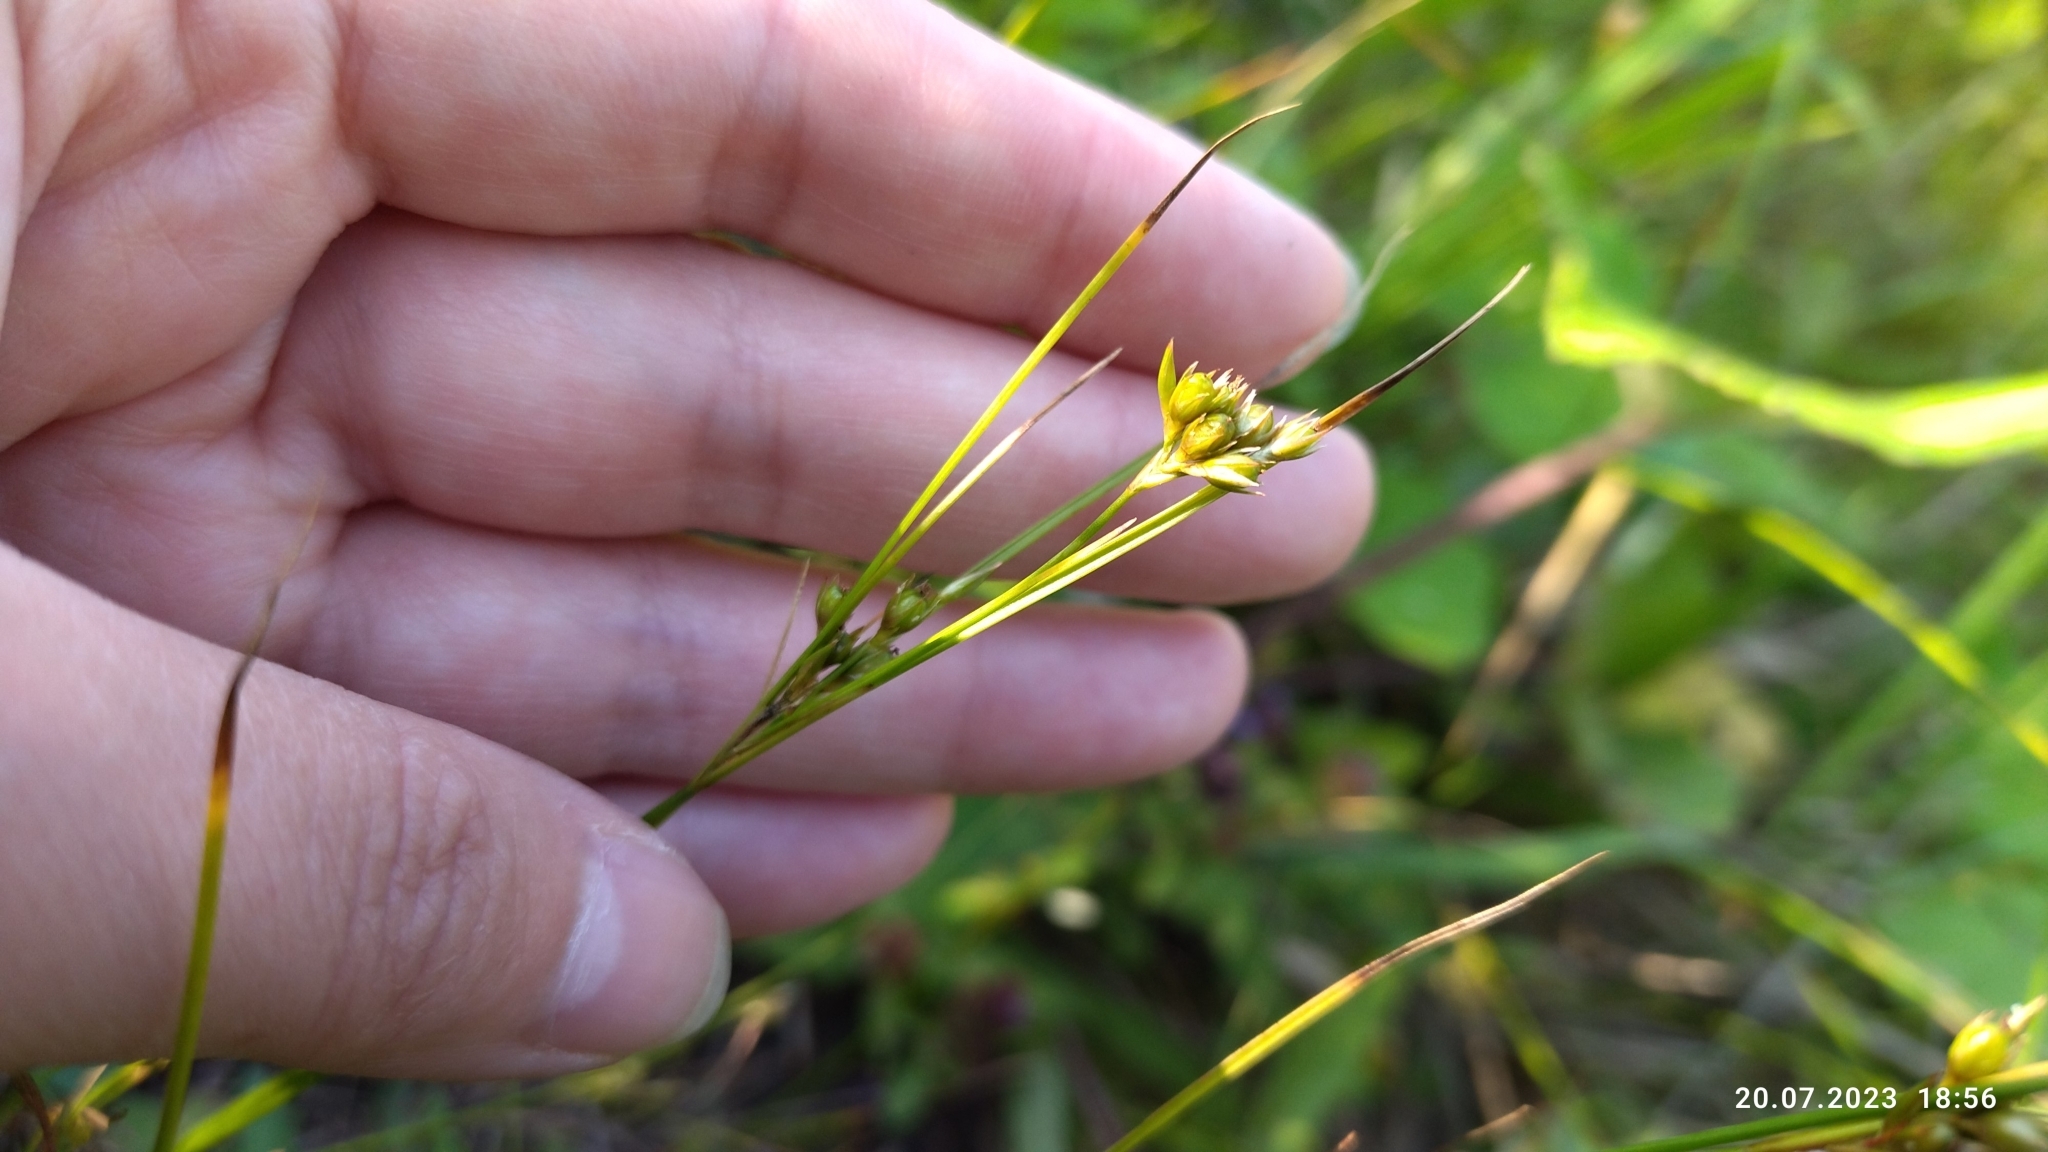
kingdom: Plantae
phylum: Tracheophyta
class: Liliopsida
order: Poales
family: Juncaceae
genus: Juncus
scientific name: Juncus tenuis
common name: Slender rush
